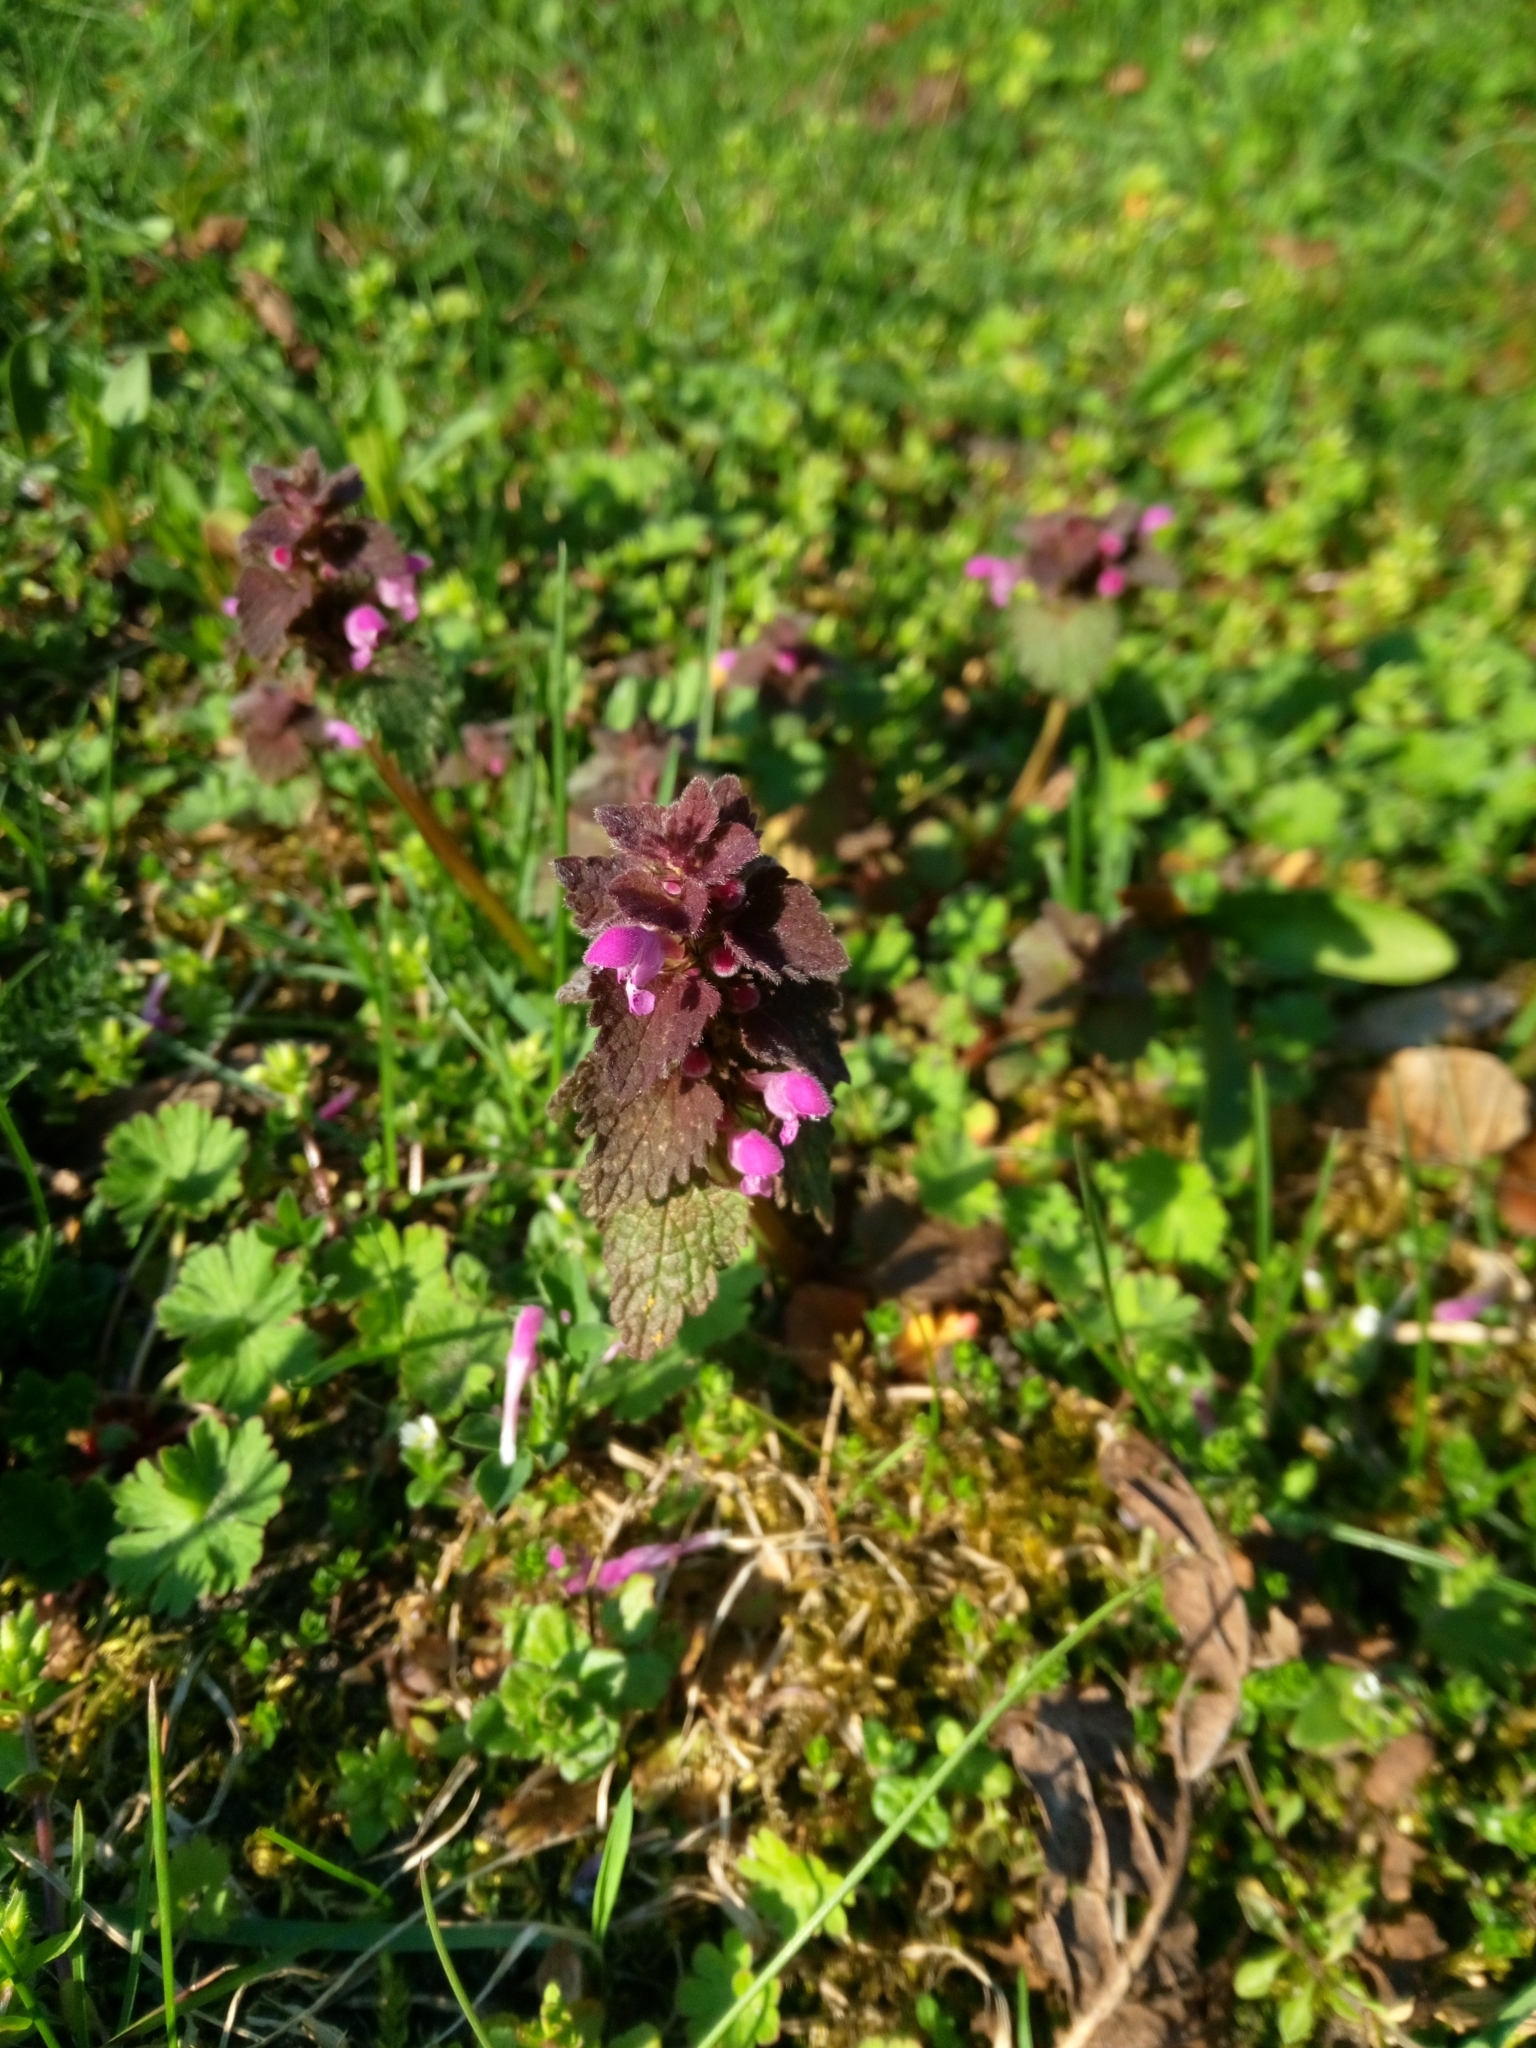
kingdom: Plantae
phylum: Tracheophyta
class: Magnoliopsida
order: Lamiales
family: Lamiaceae
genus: Lamium
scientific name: Lamium purpureum
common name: Red dead-nettle
